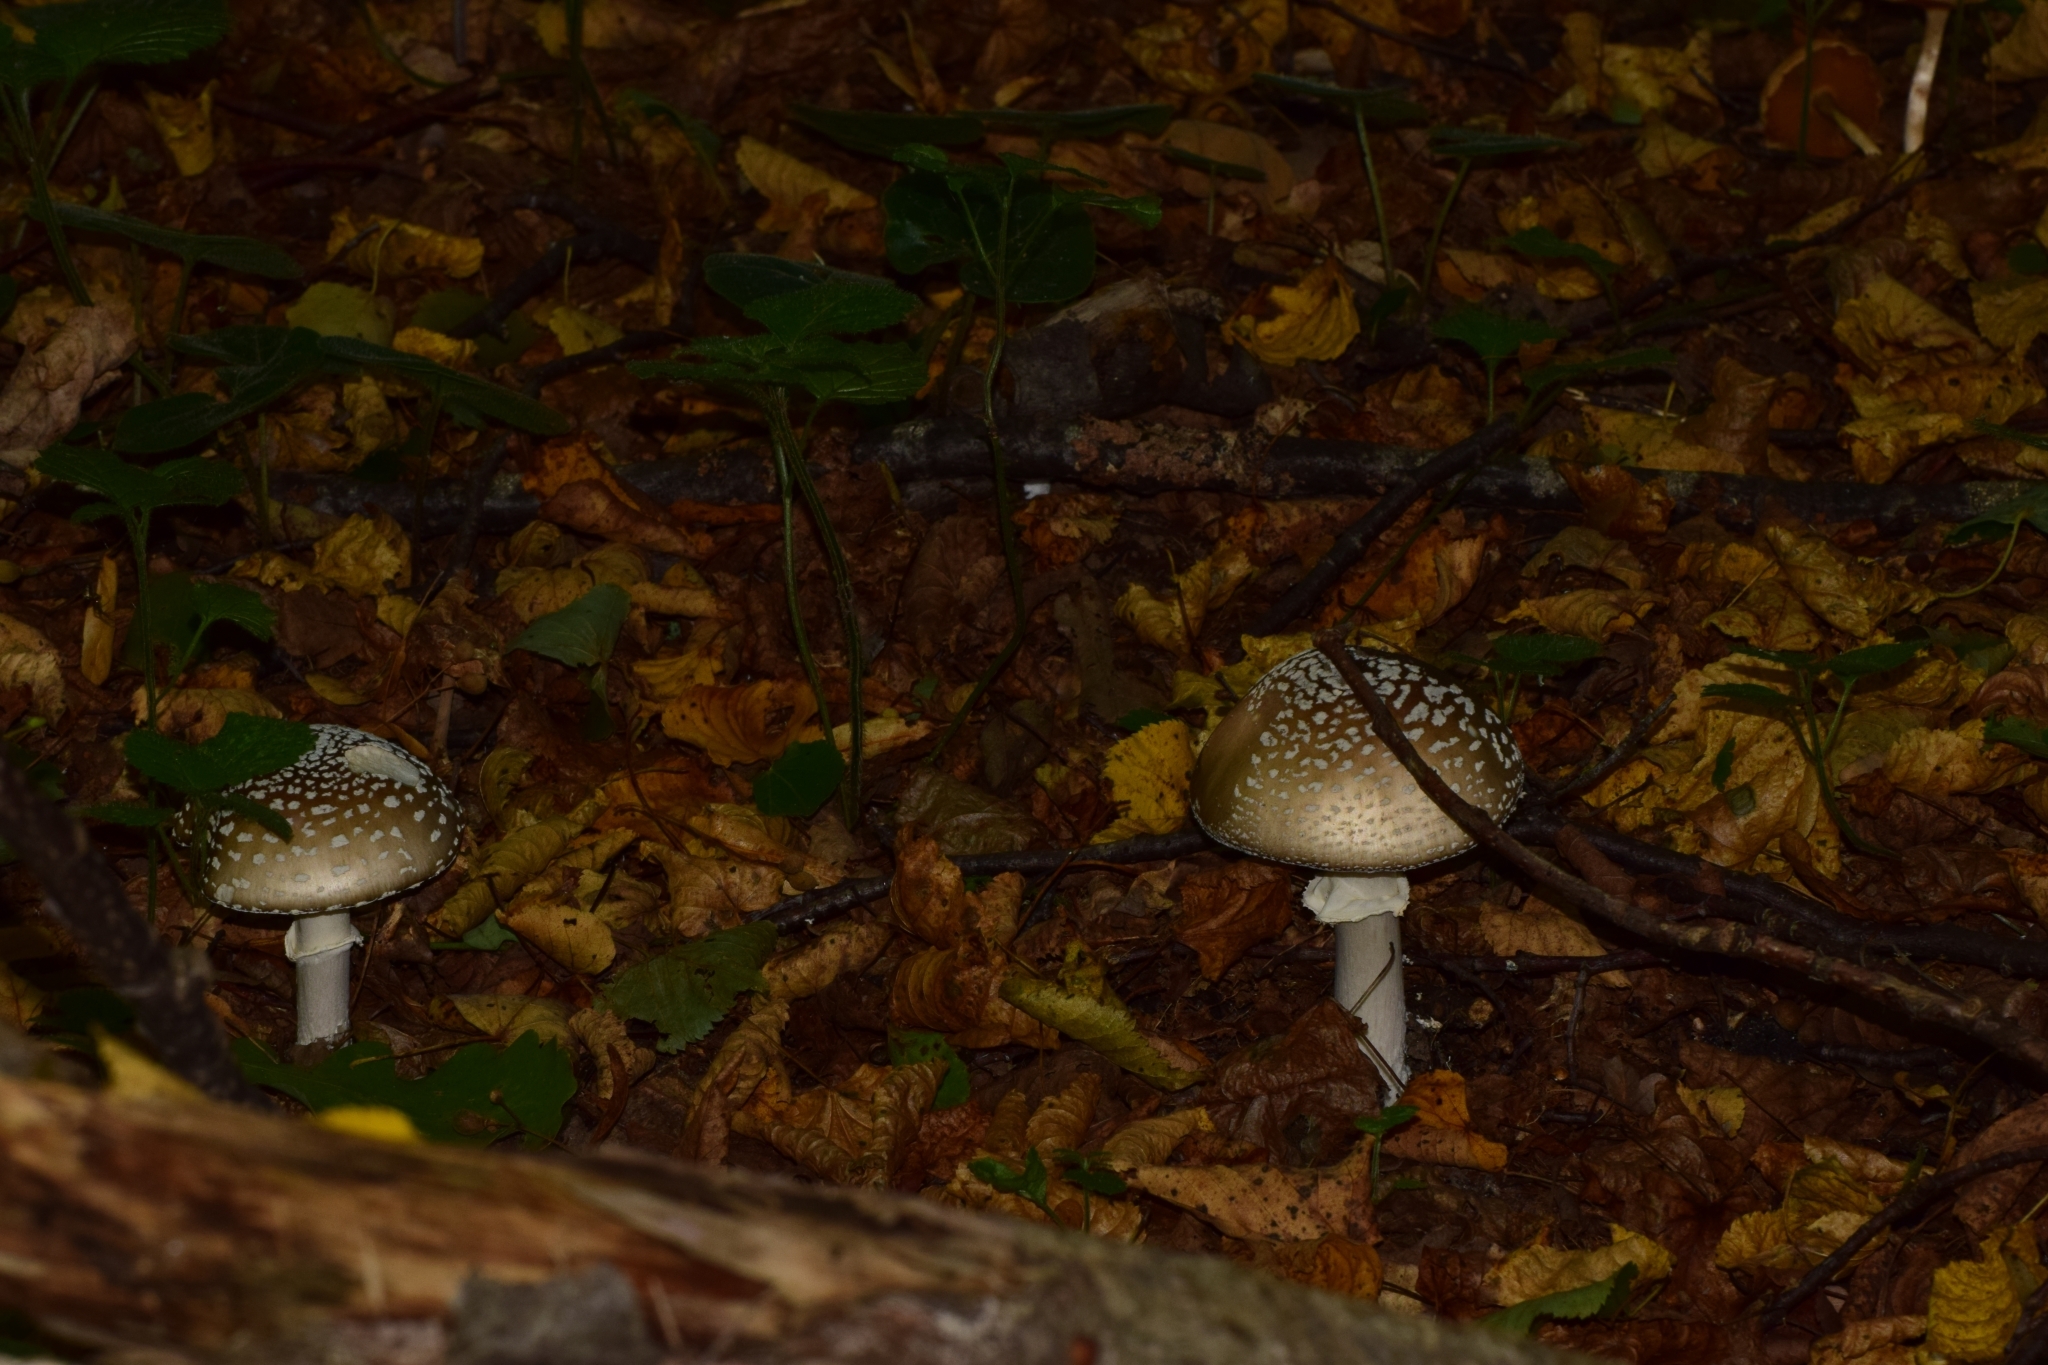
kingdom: Fungi
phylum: Basidiomycota
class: Agaricomycetes
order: Agaricales
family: Amanitaceae
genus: Amanita
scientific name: Amanita pantherina
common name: Panthercap
